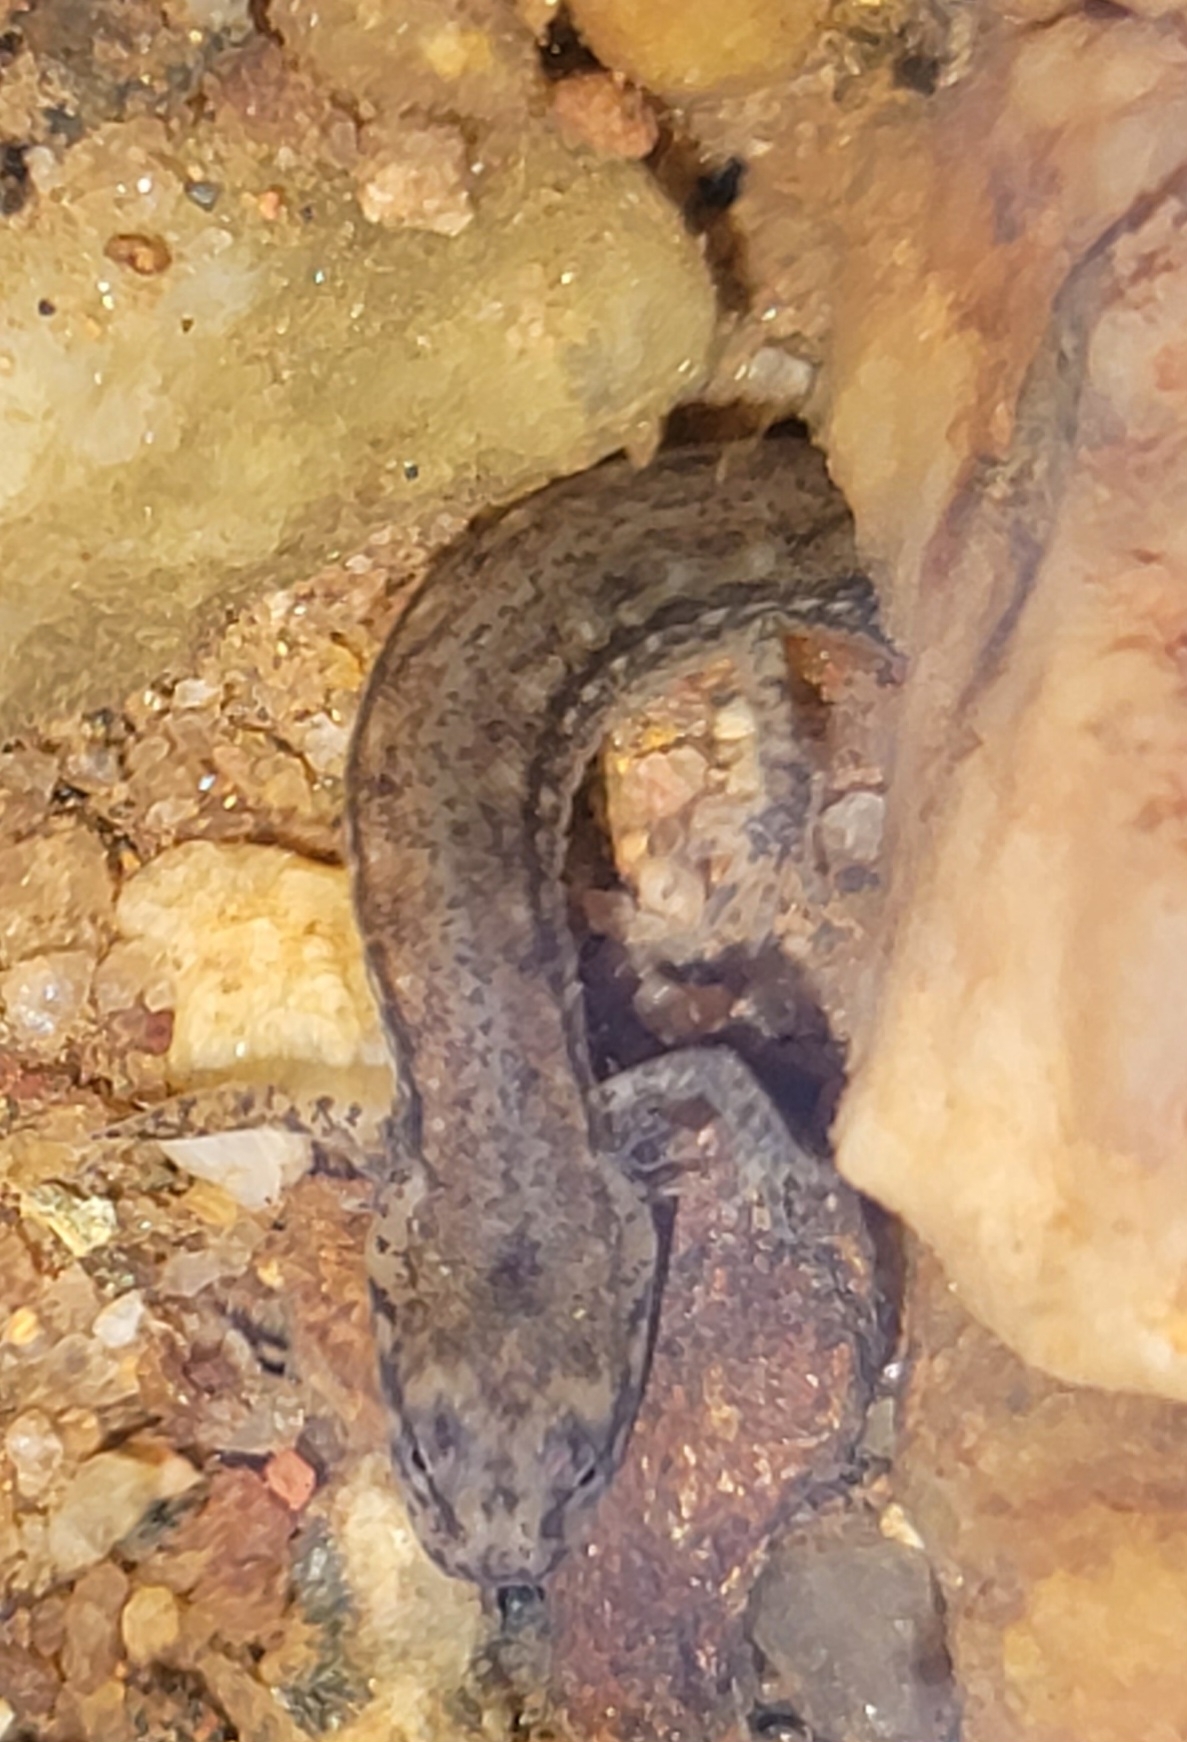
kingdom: Animalia
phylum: Chordata
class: Amphibia
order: Caudata
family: Plethodontidae
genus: Eurycea
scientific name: Eurycea cirrigera
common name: Southern two-lined salamander
